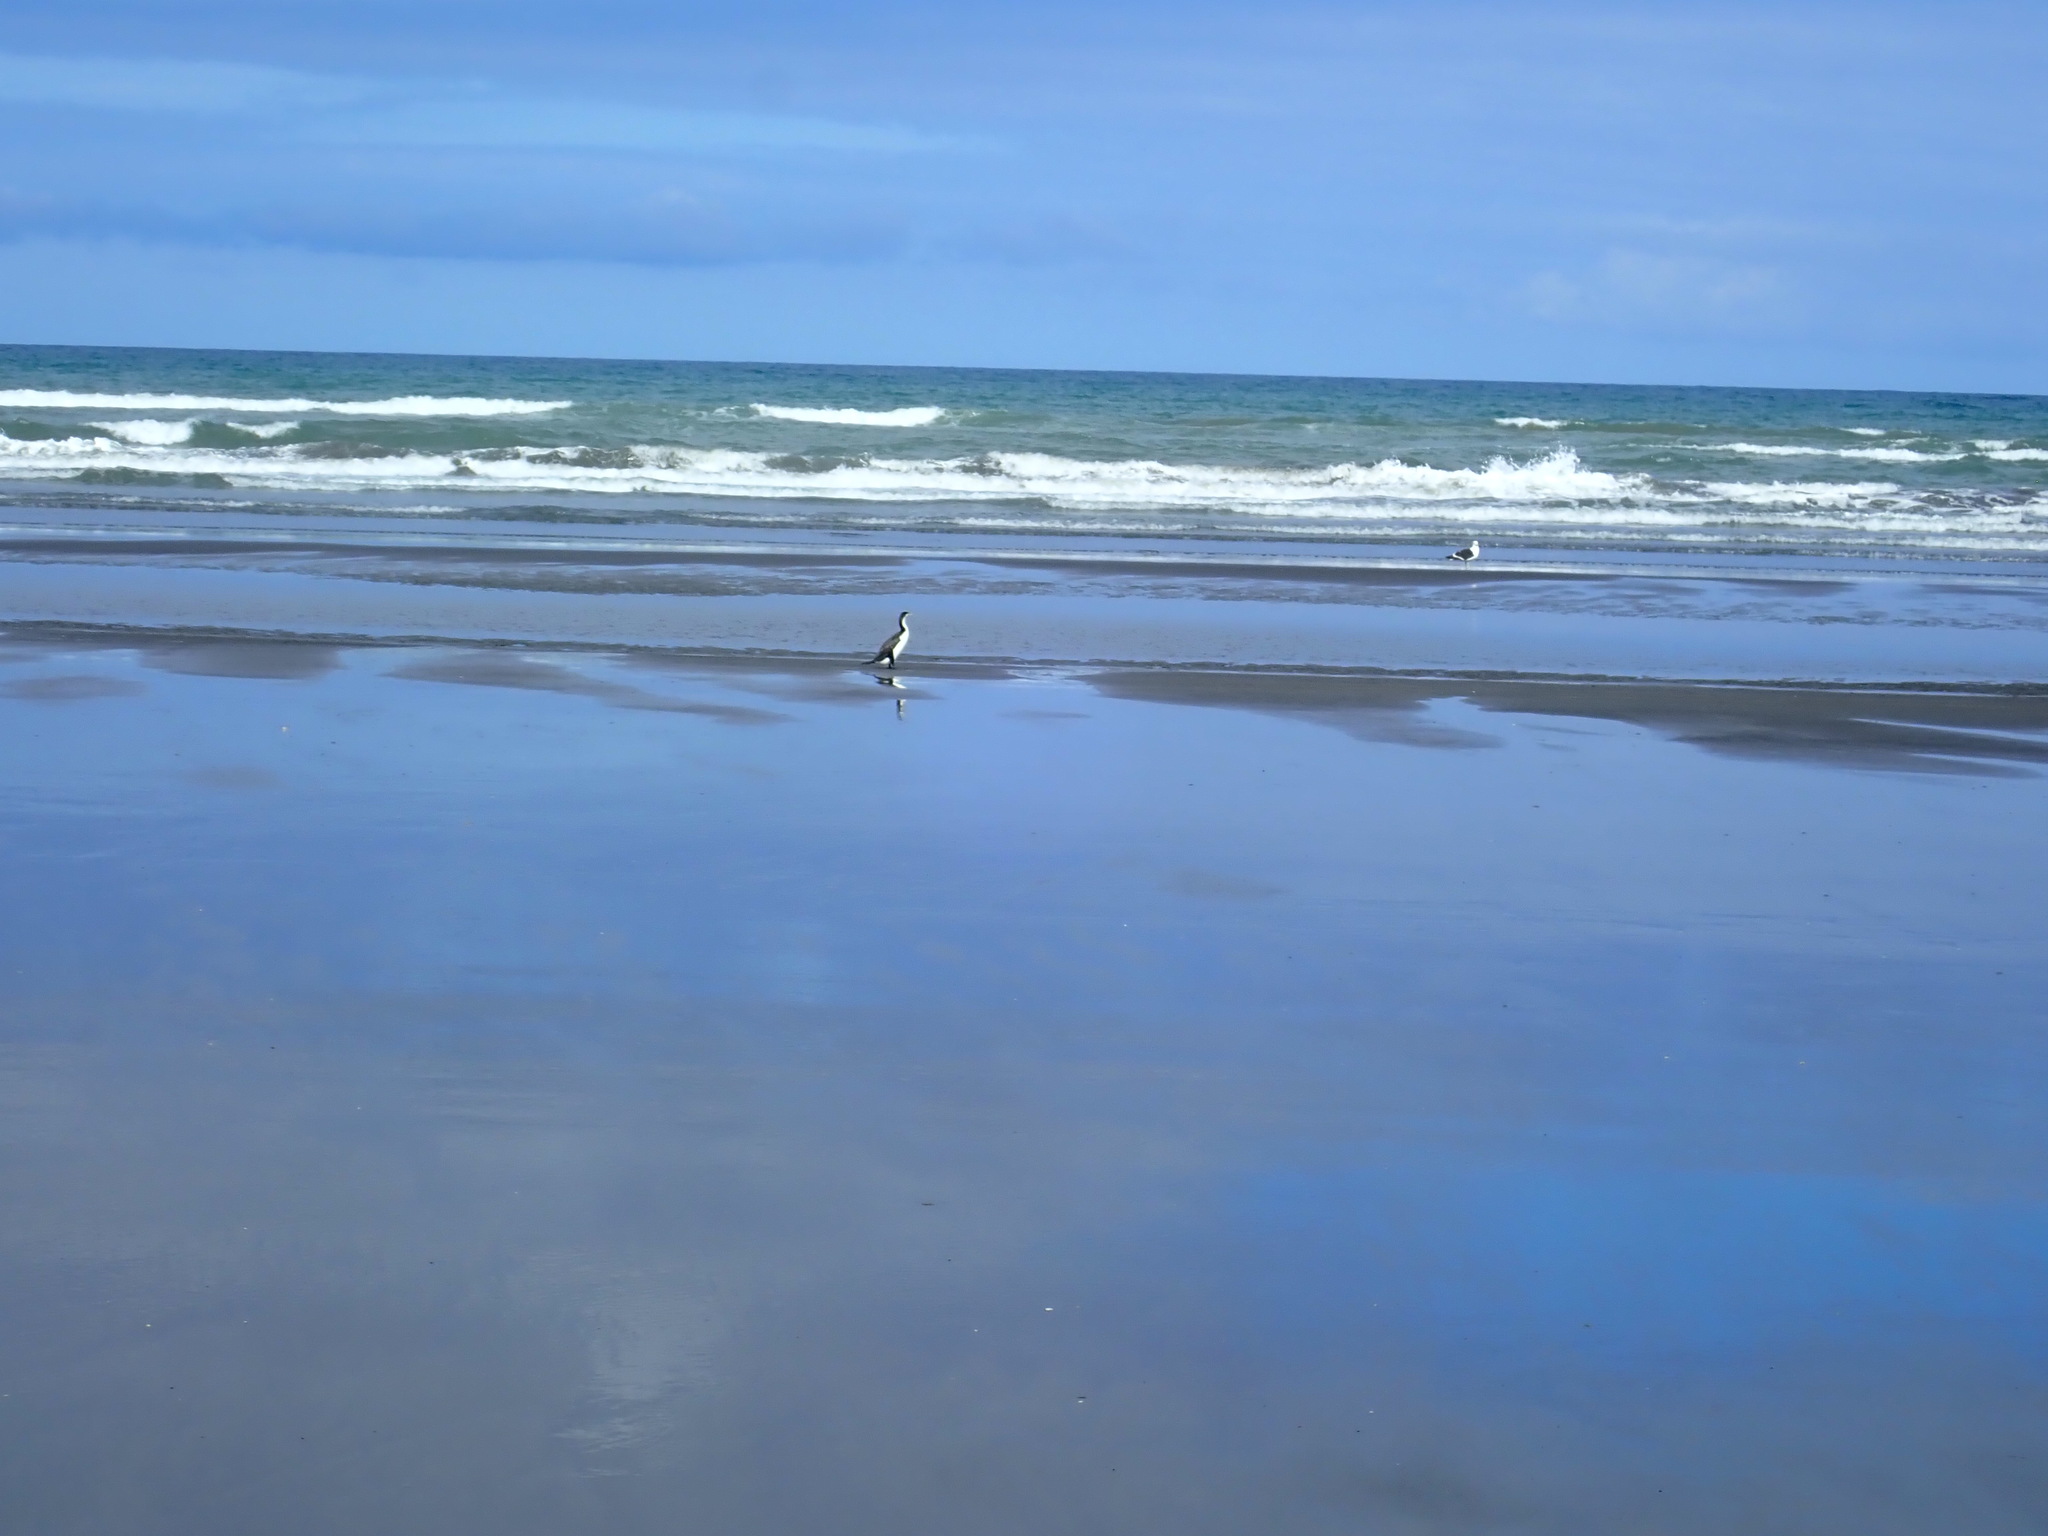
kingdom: Animalia
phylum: Chordata
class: Aves
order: Suliformes
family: Phalacrocoracidae
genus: Phalacrocorax
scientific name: Phalacrocorax varius
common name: Pied cormorant
